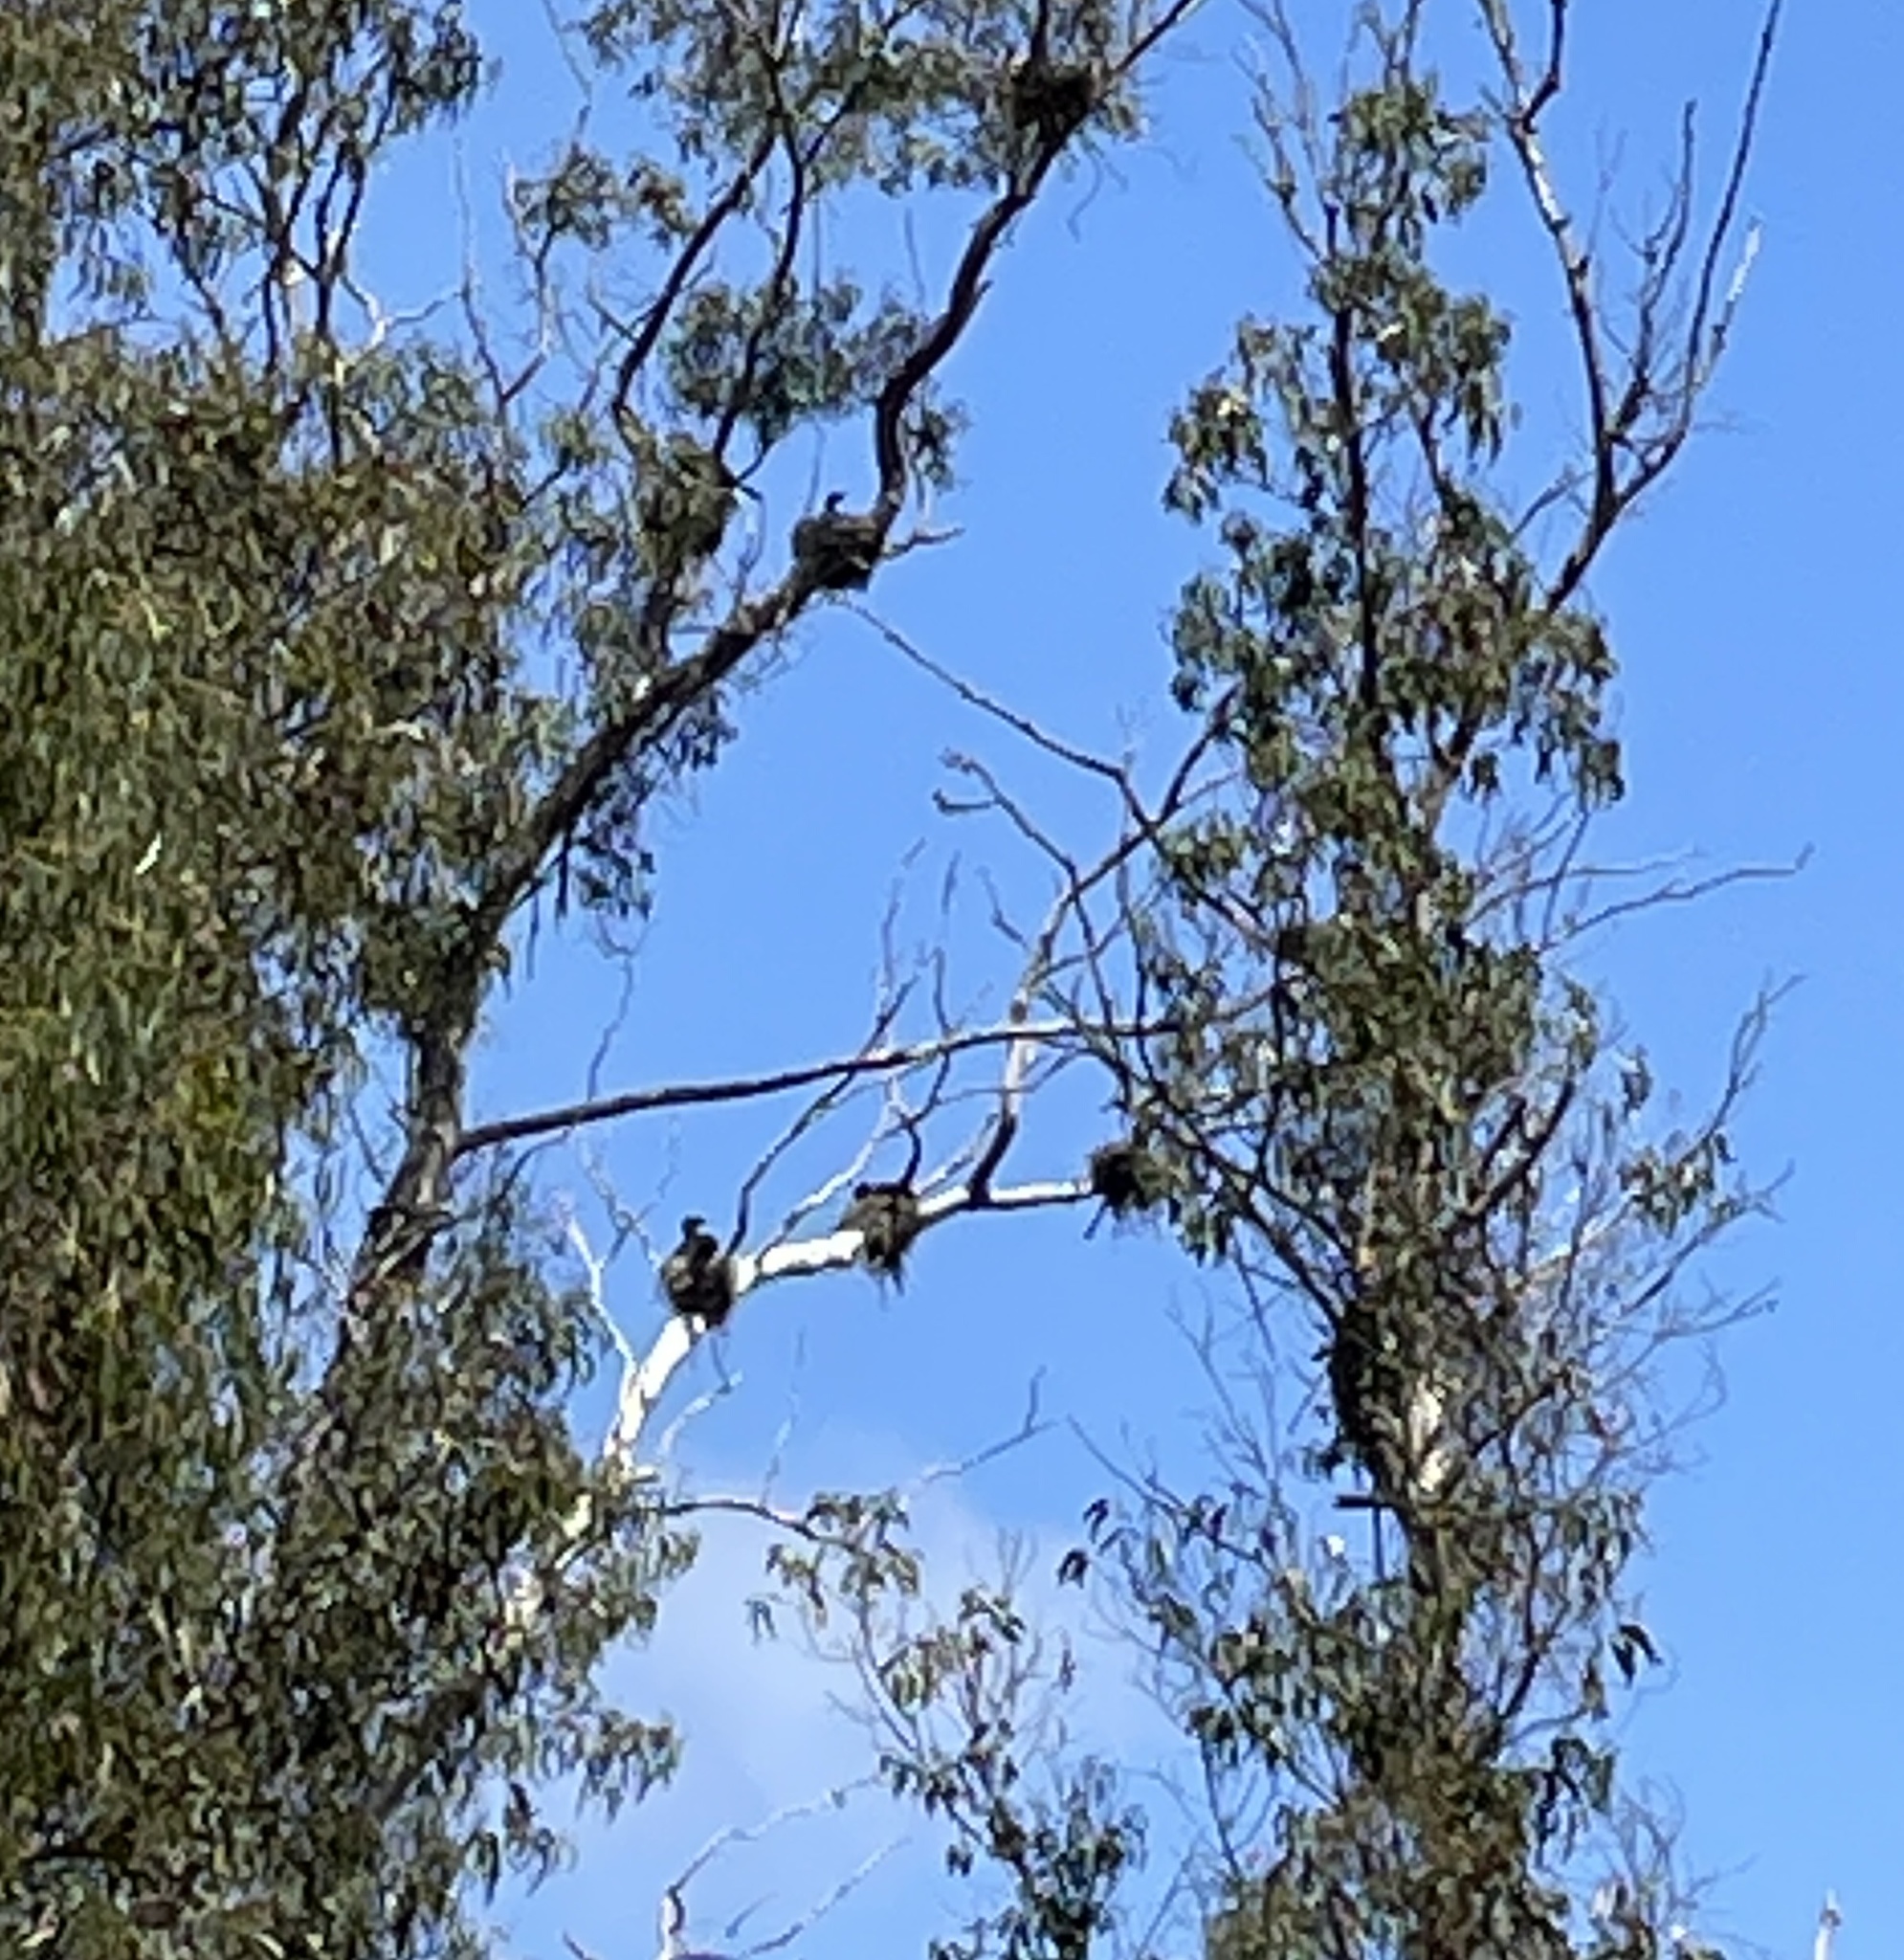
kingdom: Animalia
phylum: Chordata
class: Aves
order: Suliformes
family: Phalacrocoracidae
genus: Phalacrocorax
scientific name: Phalacrocorax auritus
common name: Double-crested cormorant
